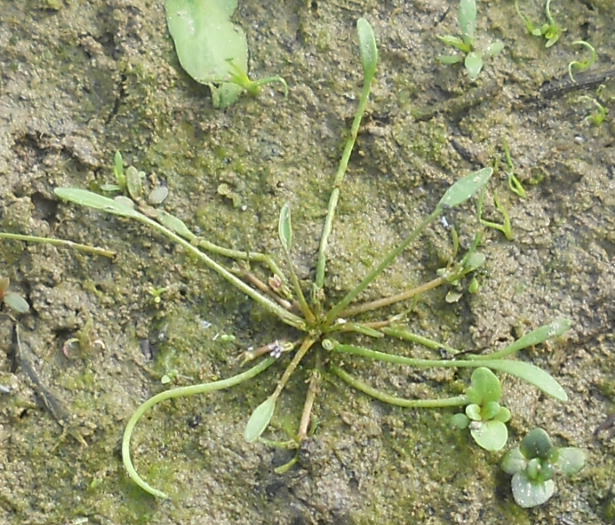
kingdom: Plantae
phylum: Tracheophyta
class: Magnoliopsida
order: Lamiales
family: Scrophulariaceae
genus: Limosella
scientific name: Limosella aquatica
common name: Mudwort
